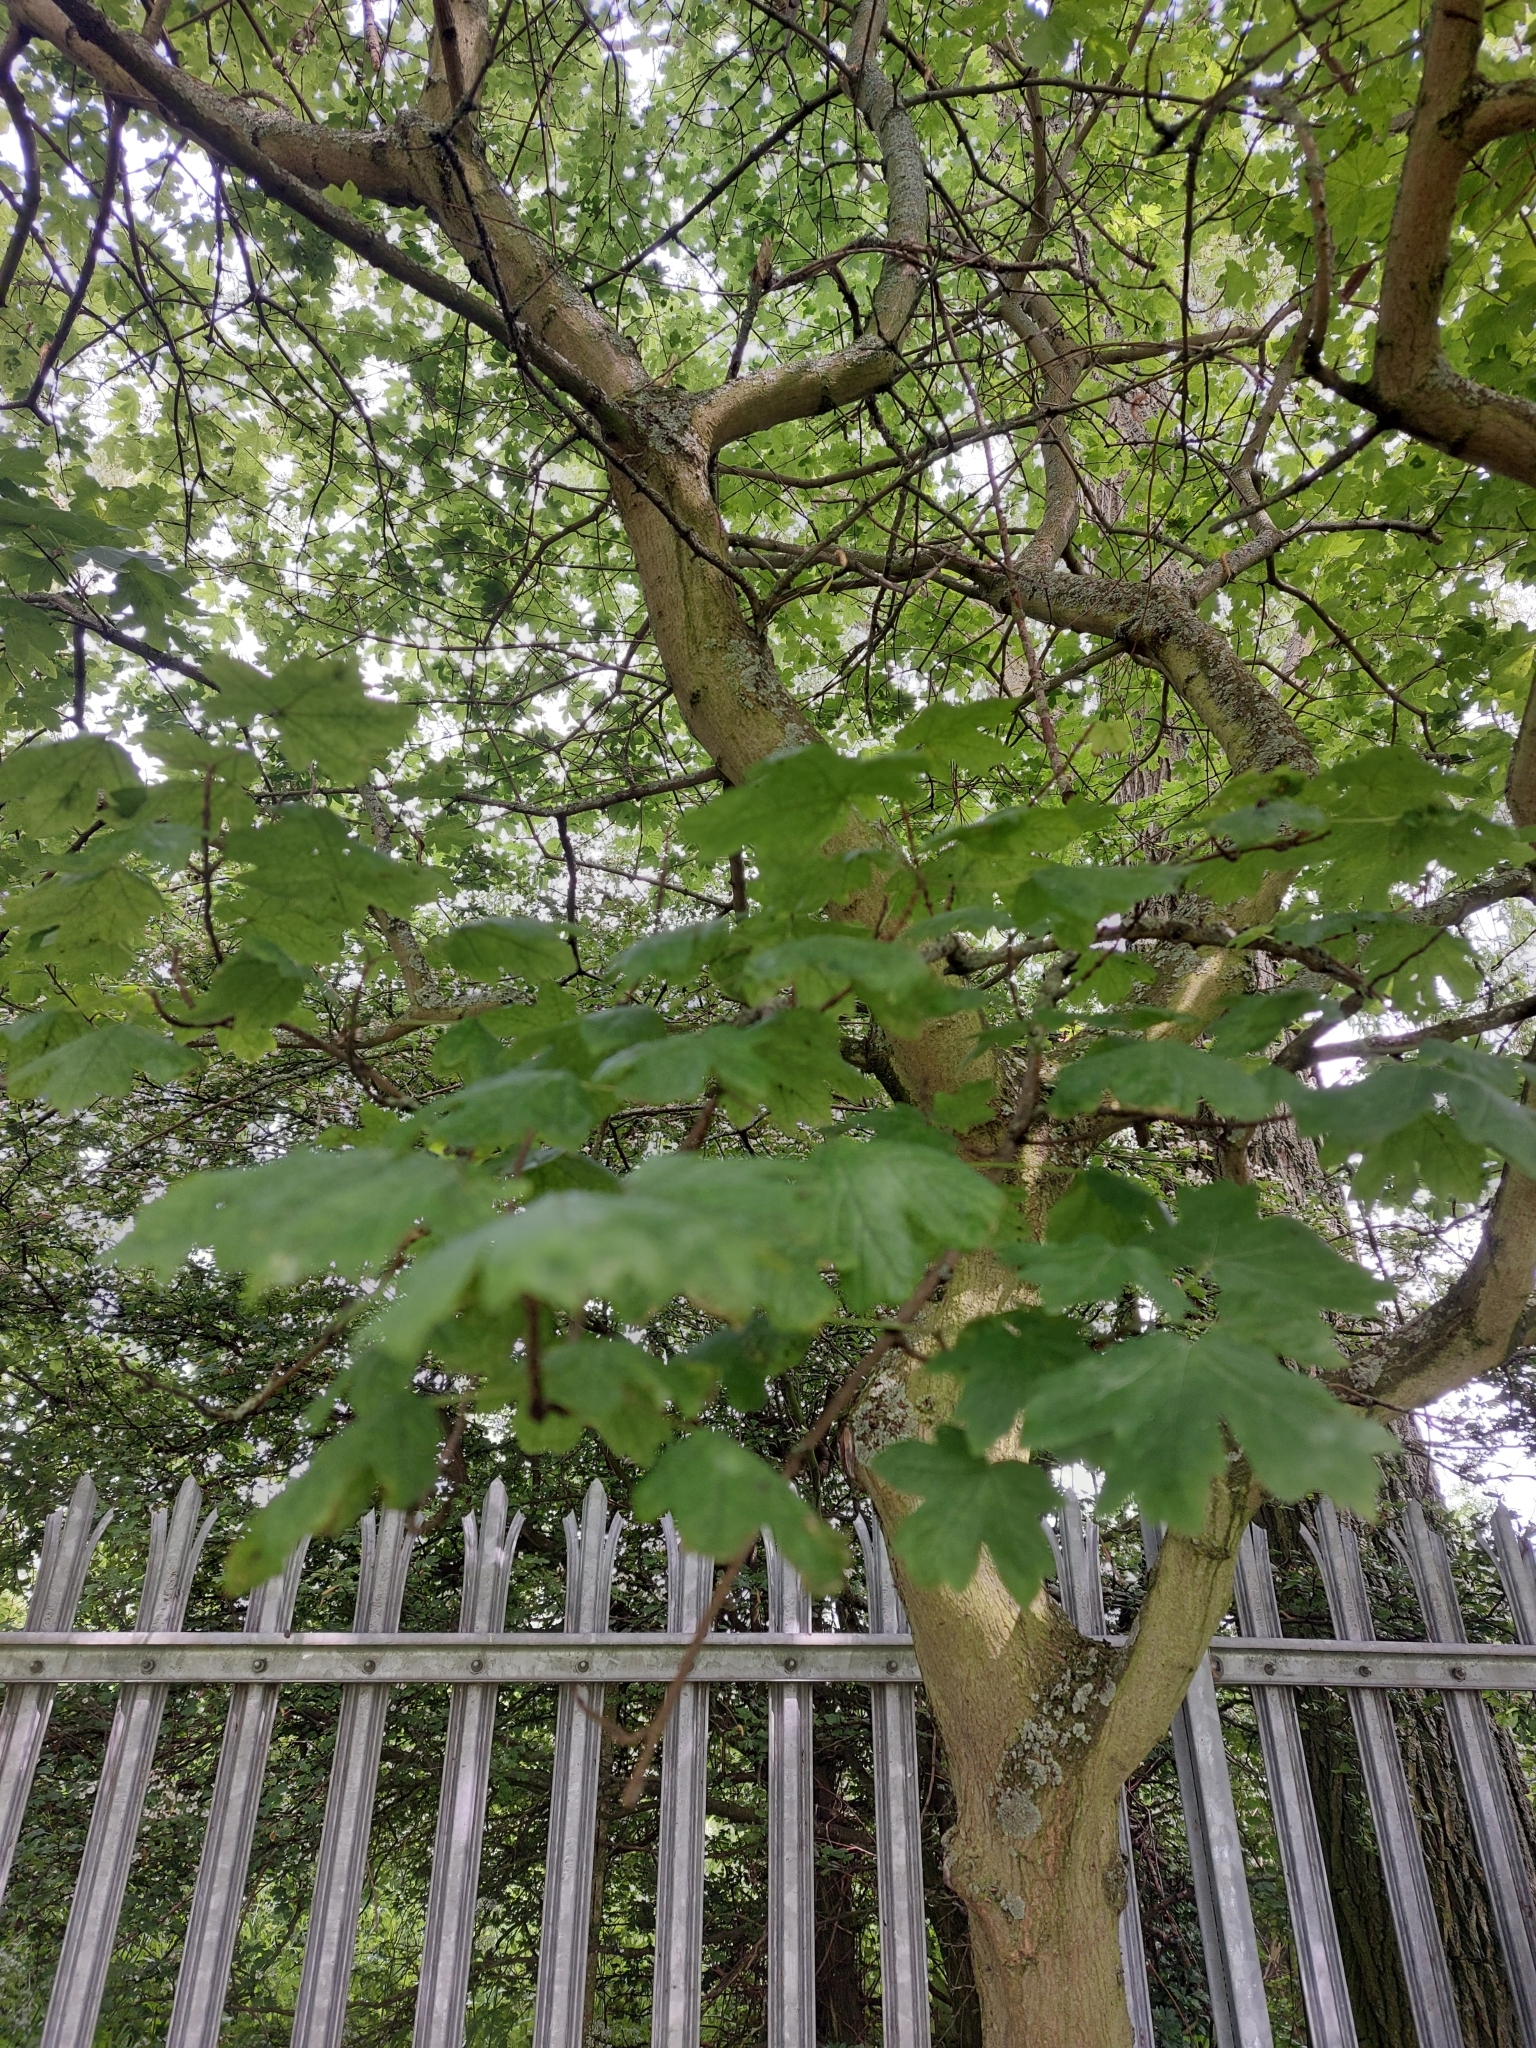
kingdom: Plantae
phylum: Tracheophyta
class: Magnoliopsida
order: Sapindales
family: Sapindaceae
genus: Acer
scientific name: Acer campestre
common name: Field maple
